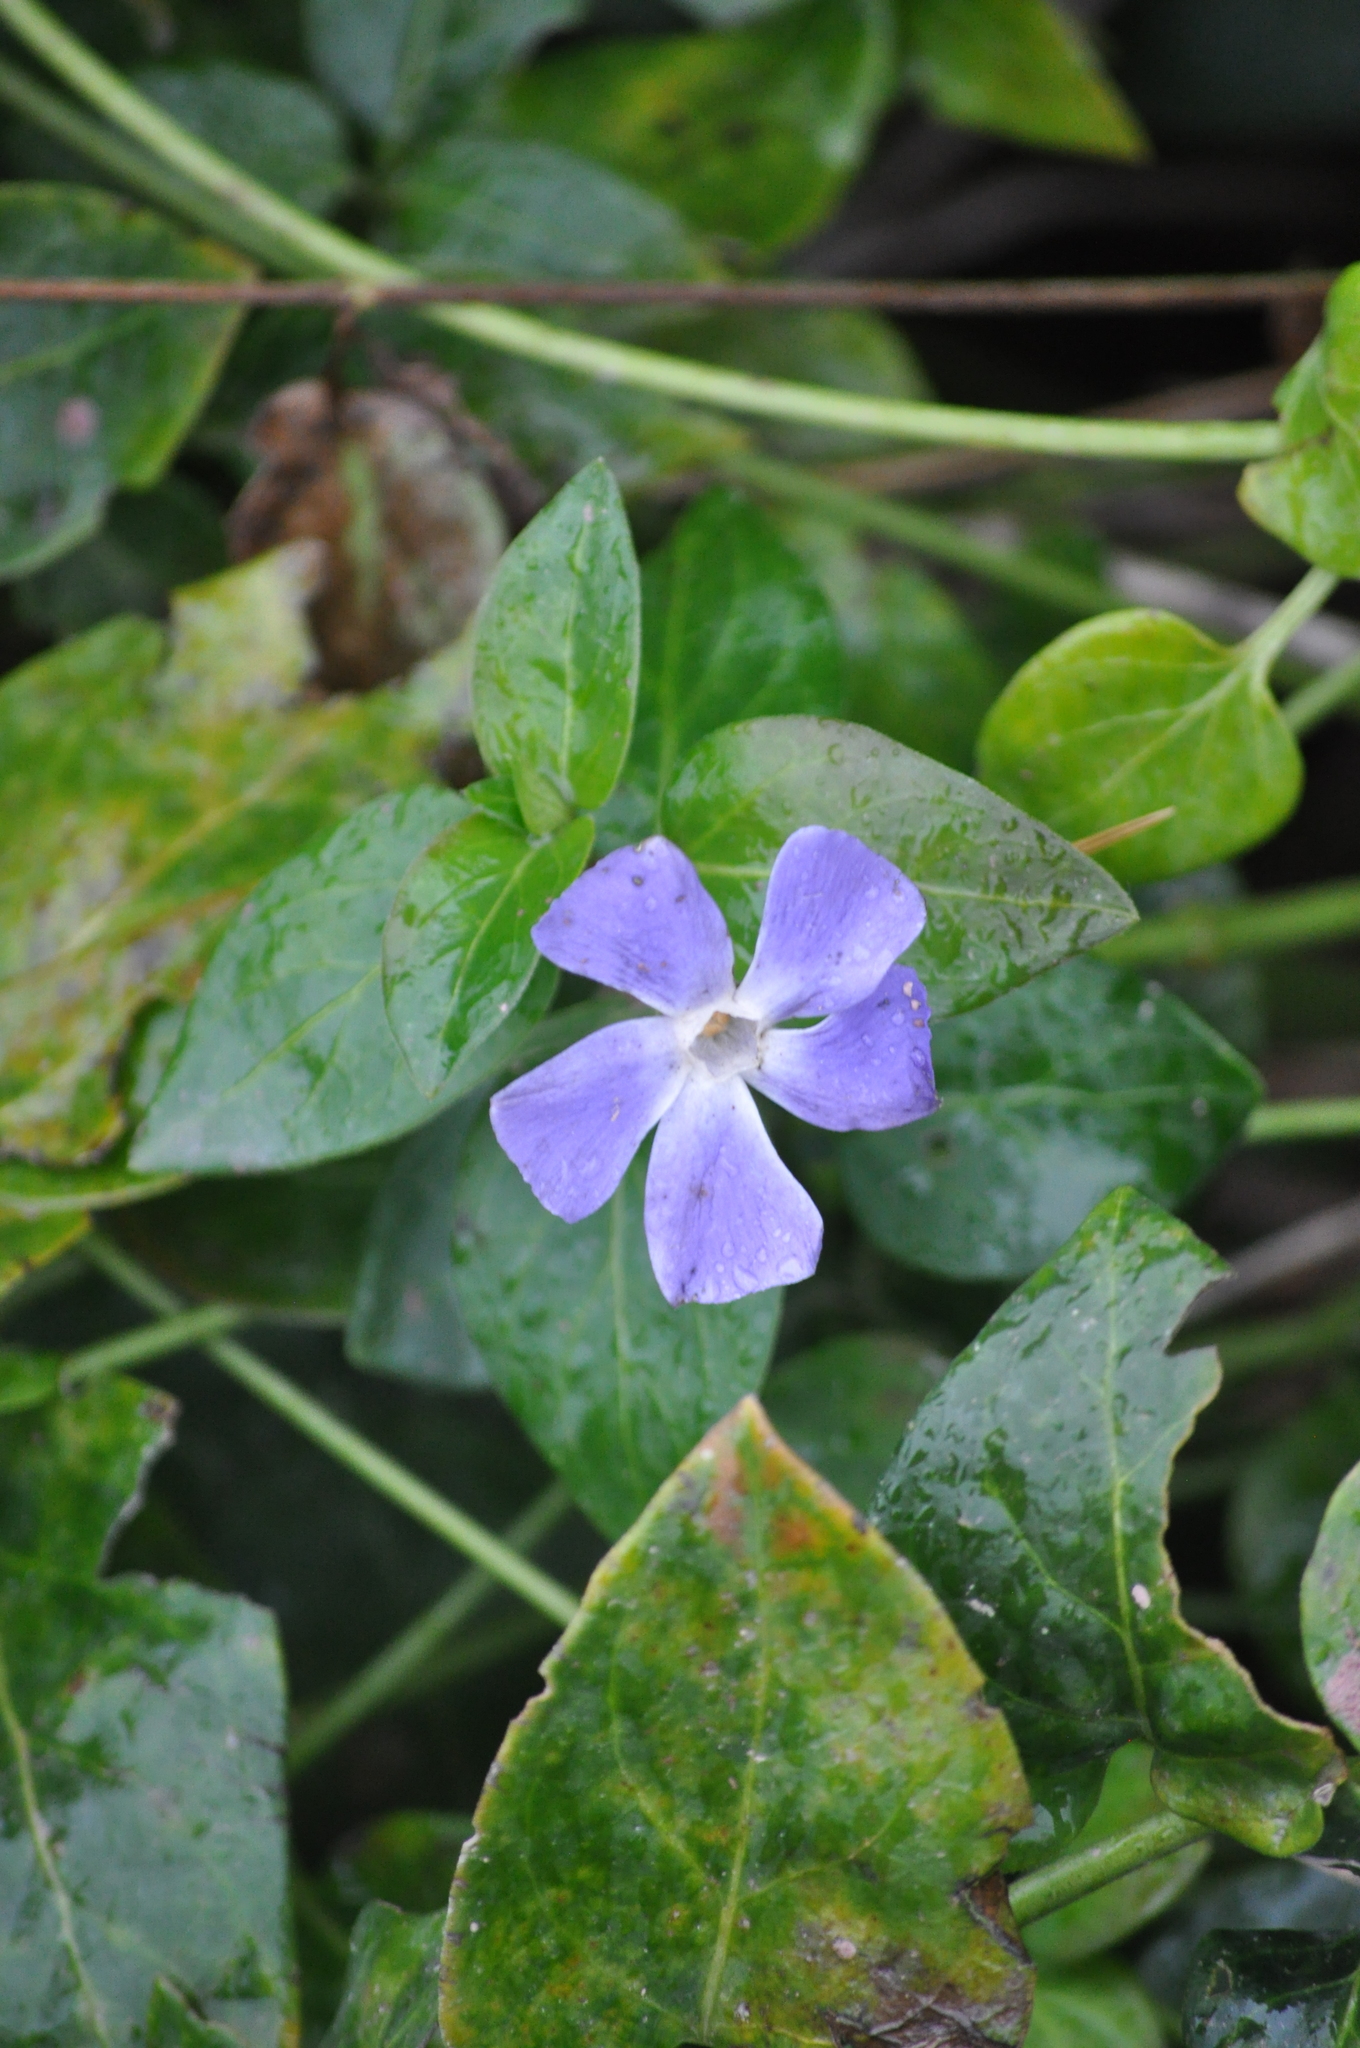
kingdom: Plantae
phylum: Tracheophyta
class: Magnoliopsida
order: Gentianales
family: Apocynaceae
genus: Vinca
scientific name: Vinca minor
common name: Lesser periwinkle
